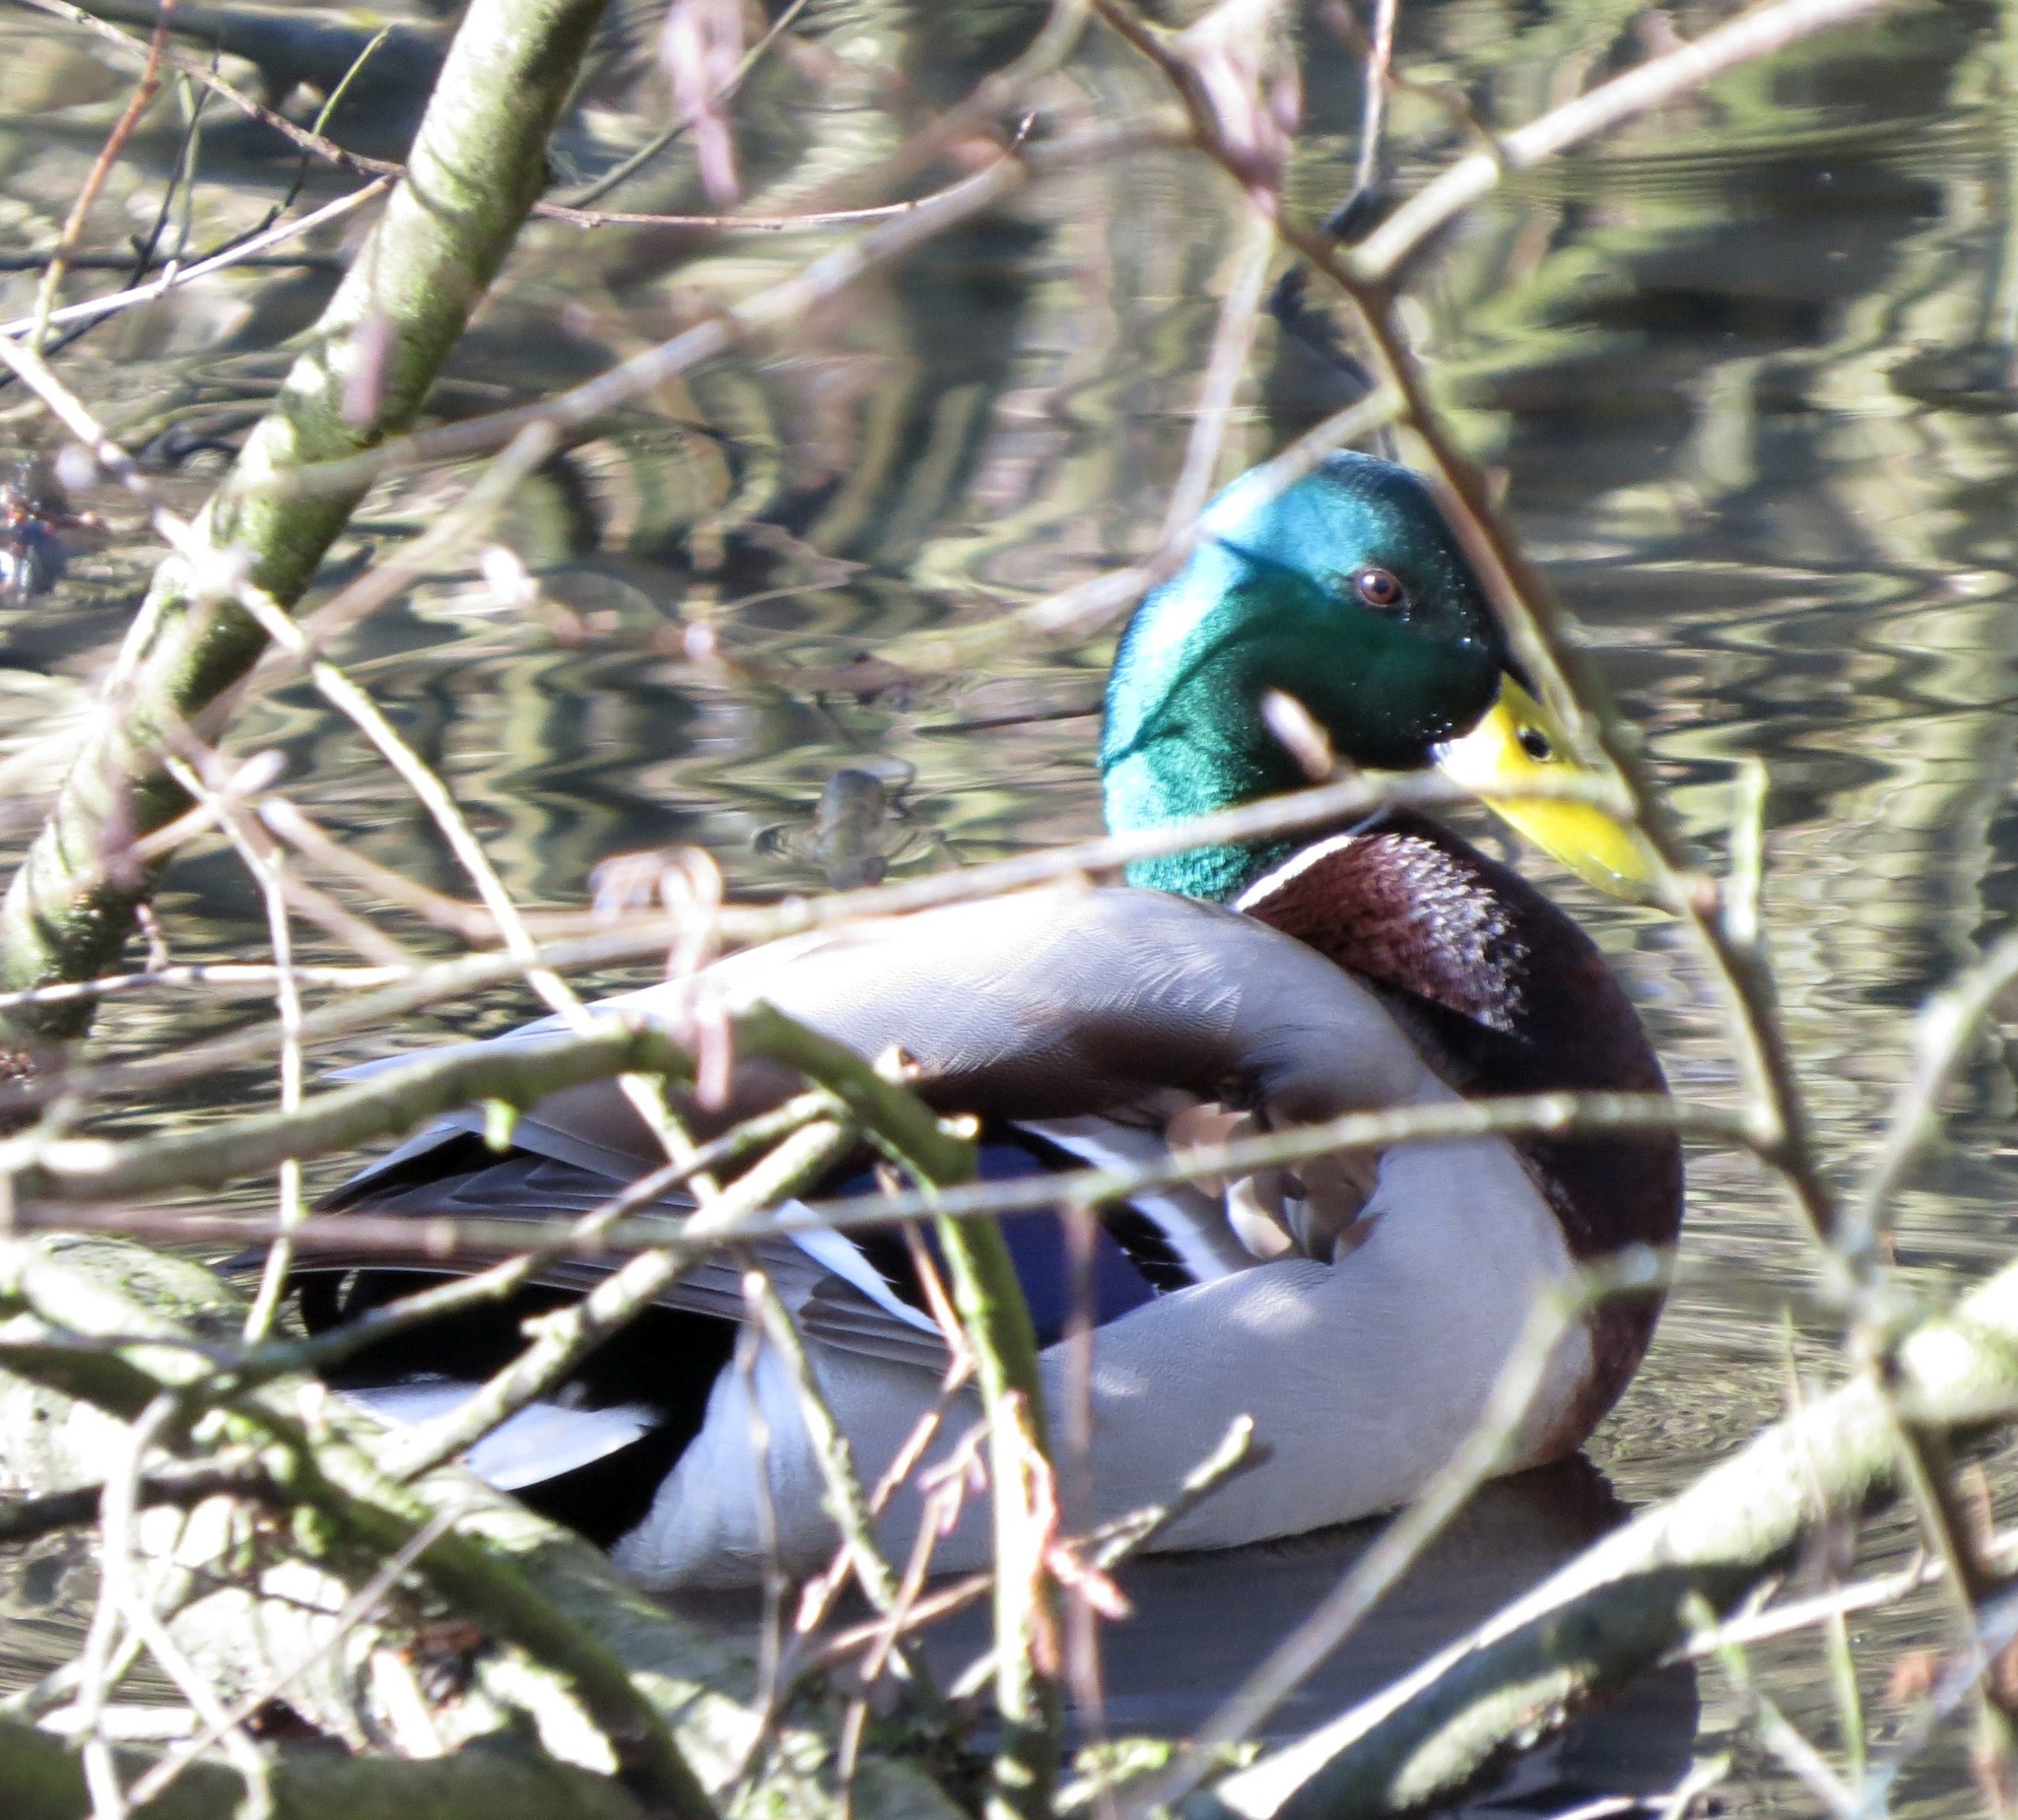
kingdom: Animalia
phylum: Chordata
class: Aves
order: Anseriformes
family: Anatidae
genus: Anas
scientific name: Anas platyrhynchos
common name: Mallard
